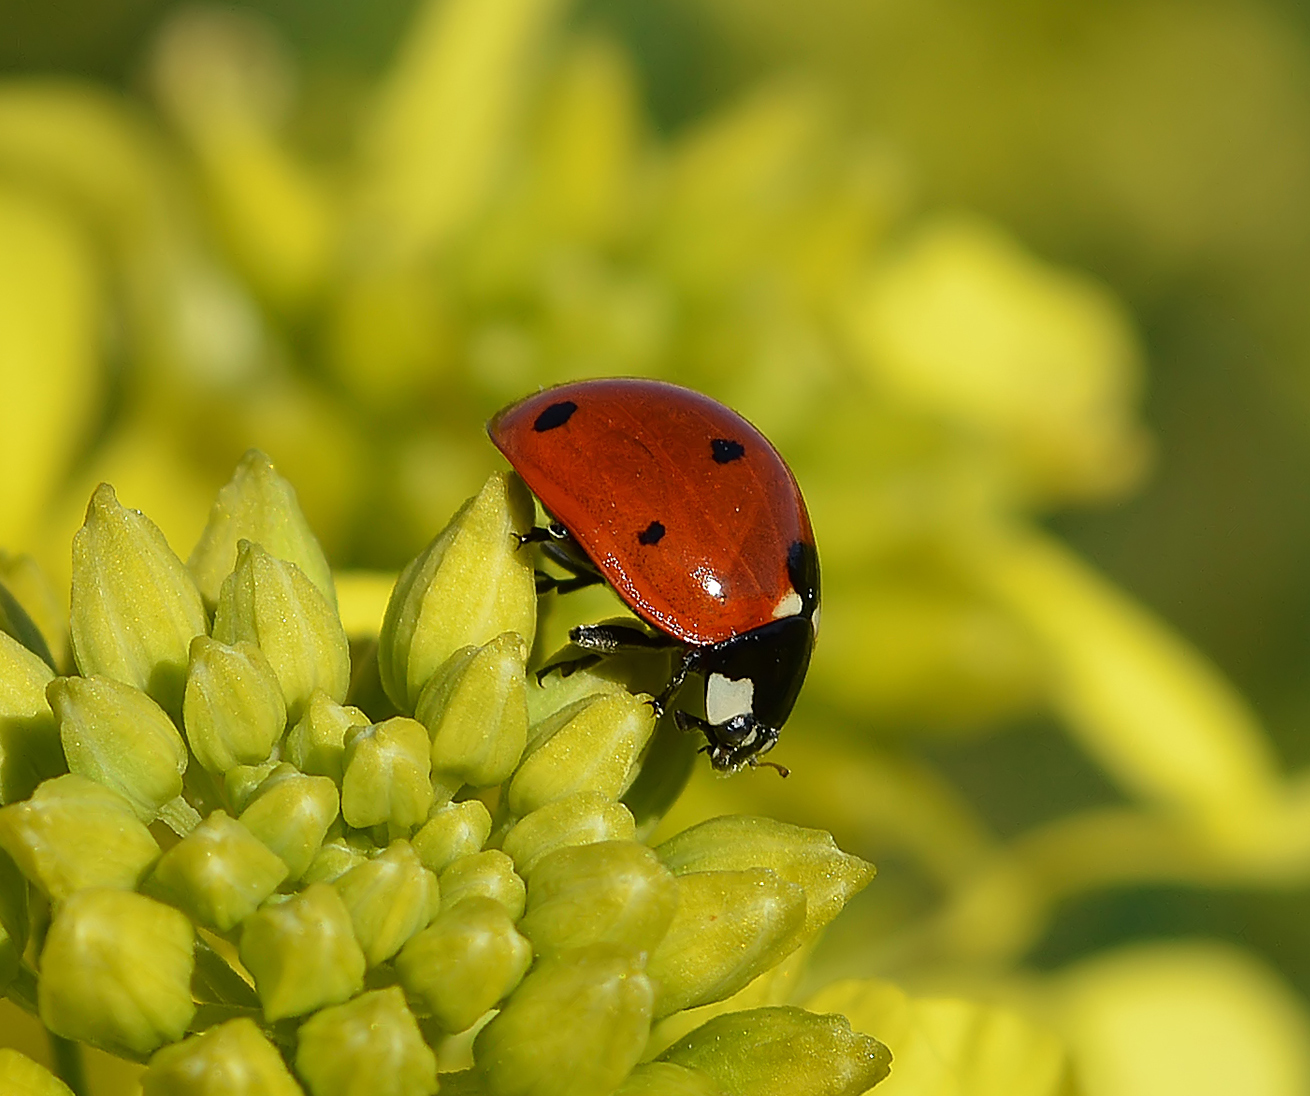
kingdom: Animalia
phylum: Arthropoda
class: Insecta
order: Coleoptera
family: Coccinellidae
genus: Coccinella
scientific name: Coccinella septempunctata
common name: Sevenspotted lady beetle
